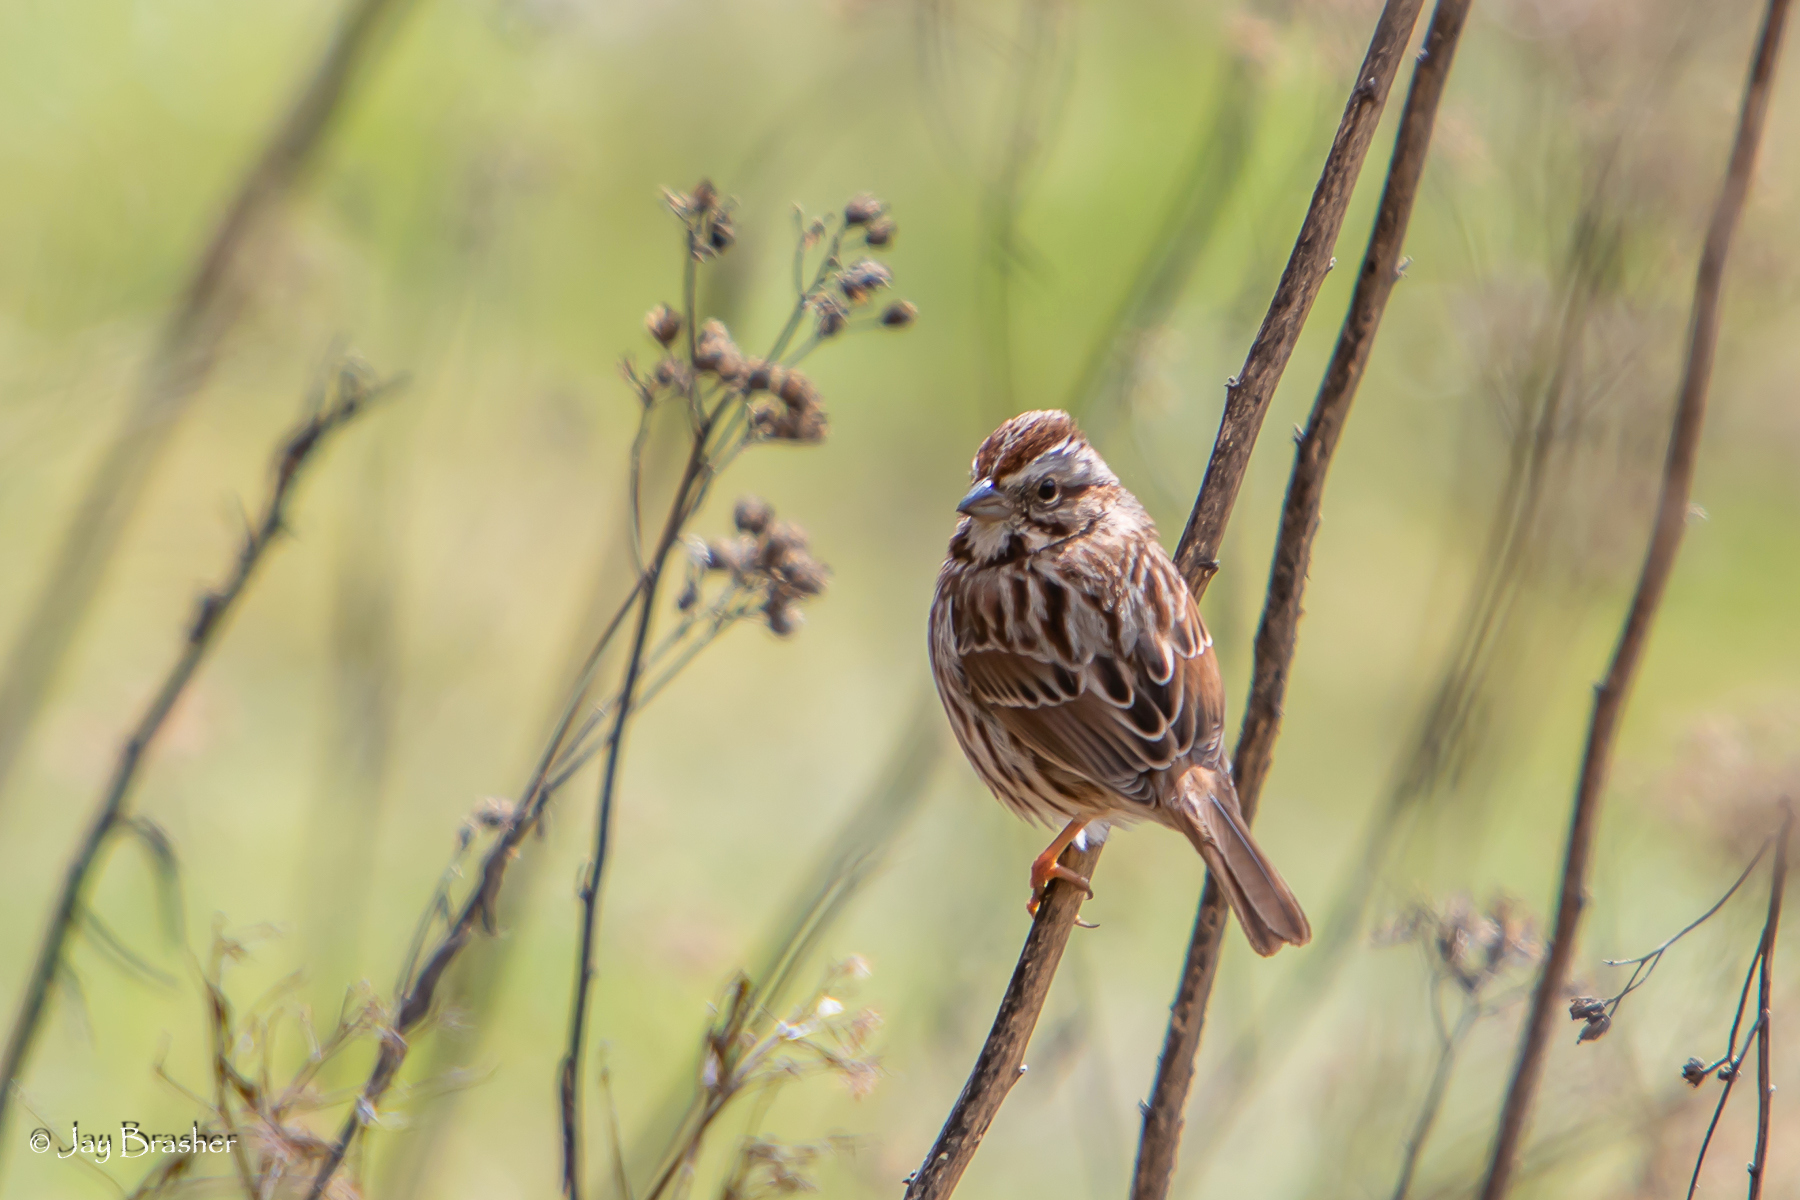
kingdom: Animalia
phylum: Chordata
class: Aves
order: Passeriformes
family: Passerellidae
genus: Melospiza
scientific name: Melospiza melodia
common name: Song sparrow
